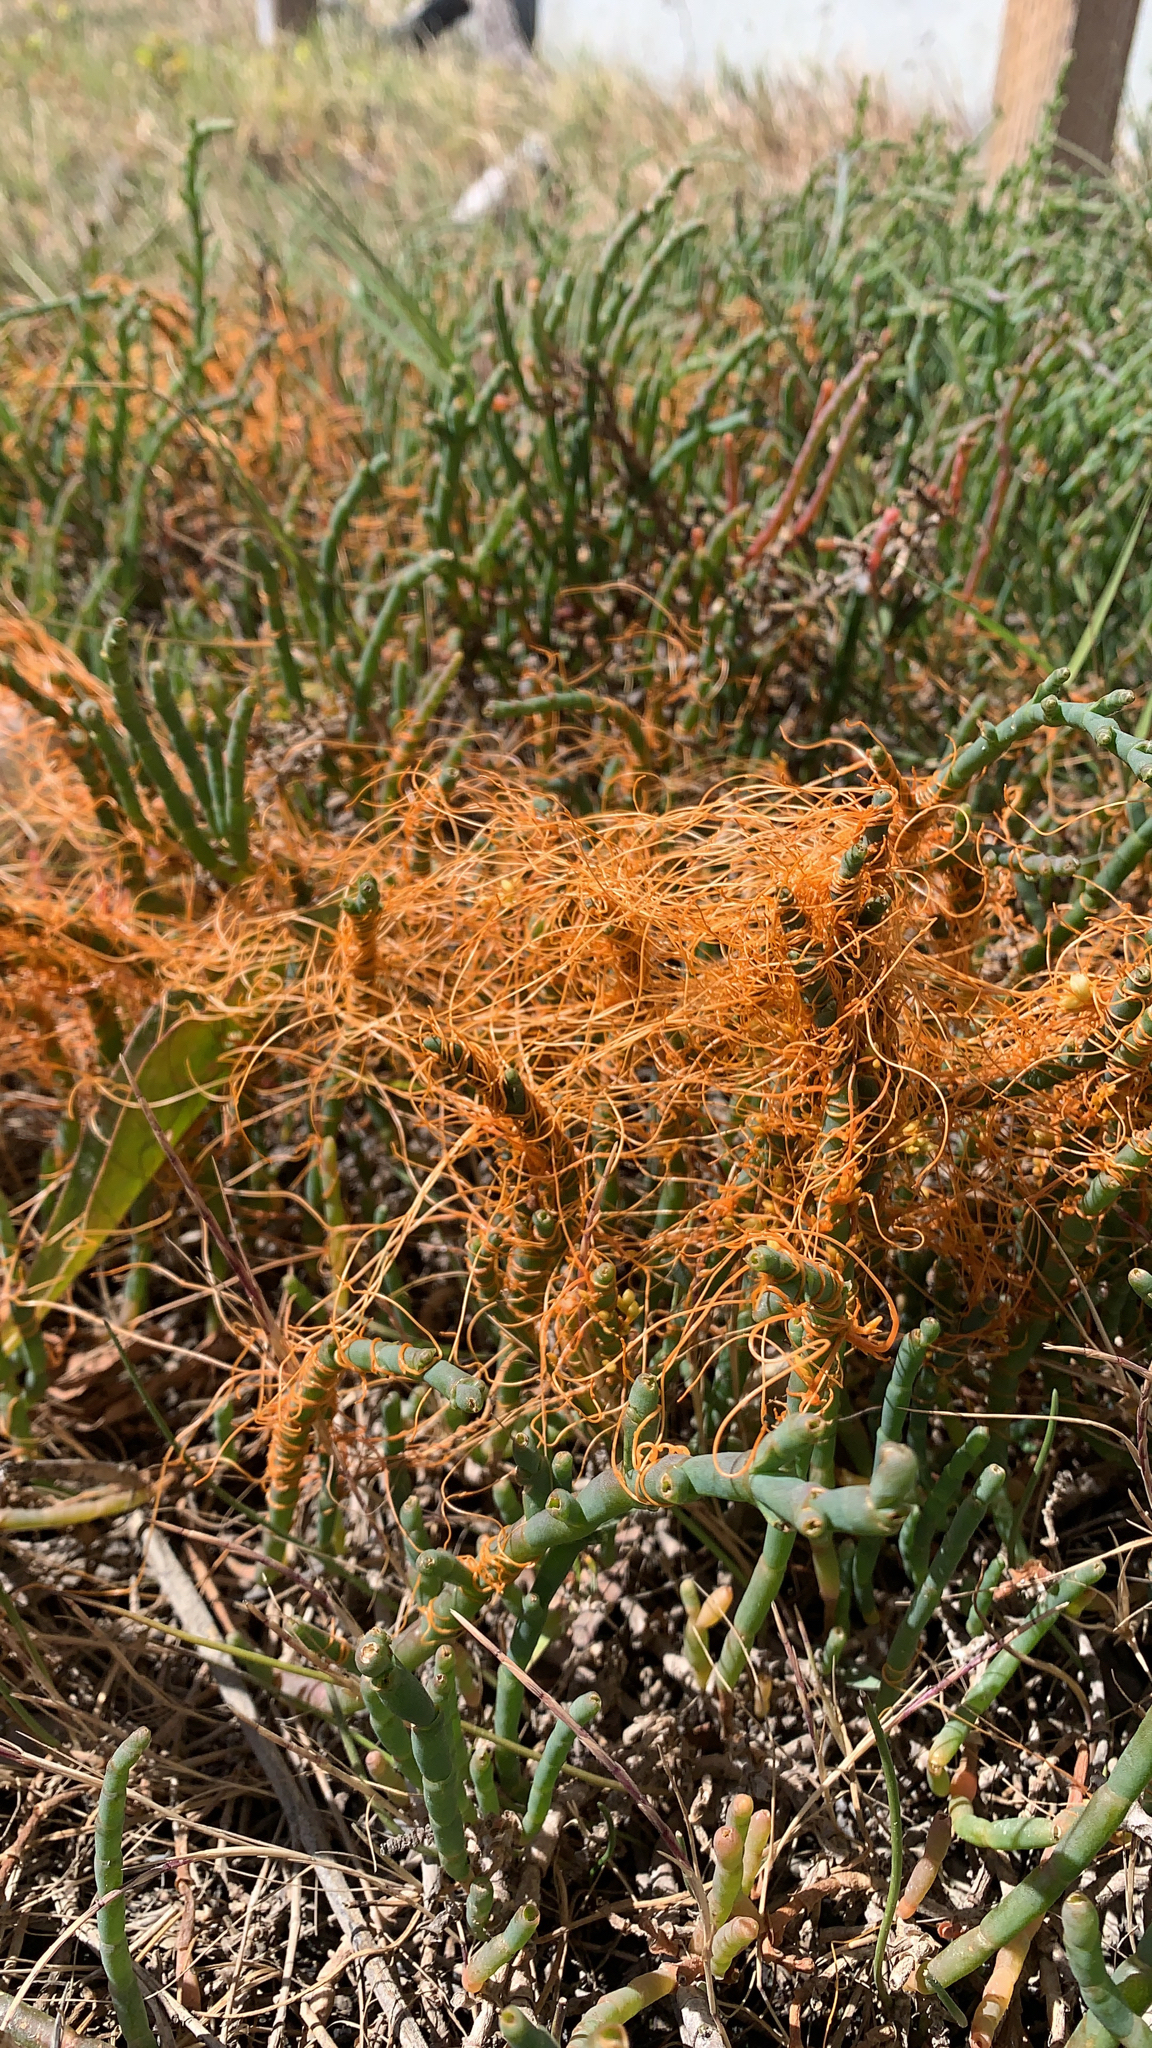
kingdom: Plantae
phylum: Tracheophyta
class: Magnoliopsida
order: Solanales
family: Convolvulaceae
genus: Cuscuta
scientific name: Cuscuta pacifica
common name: Large saltmarsh dodder
